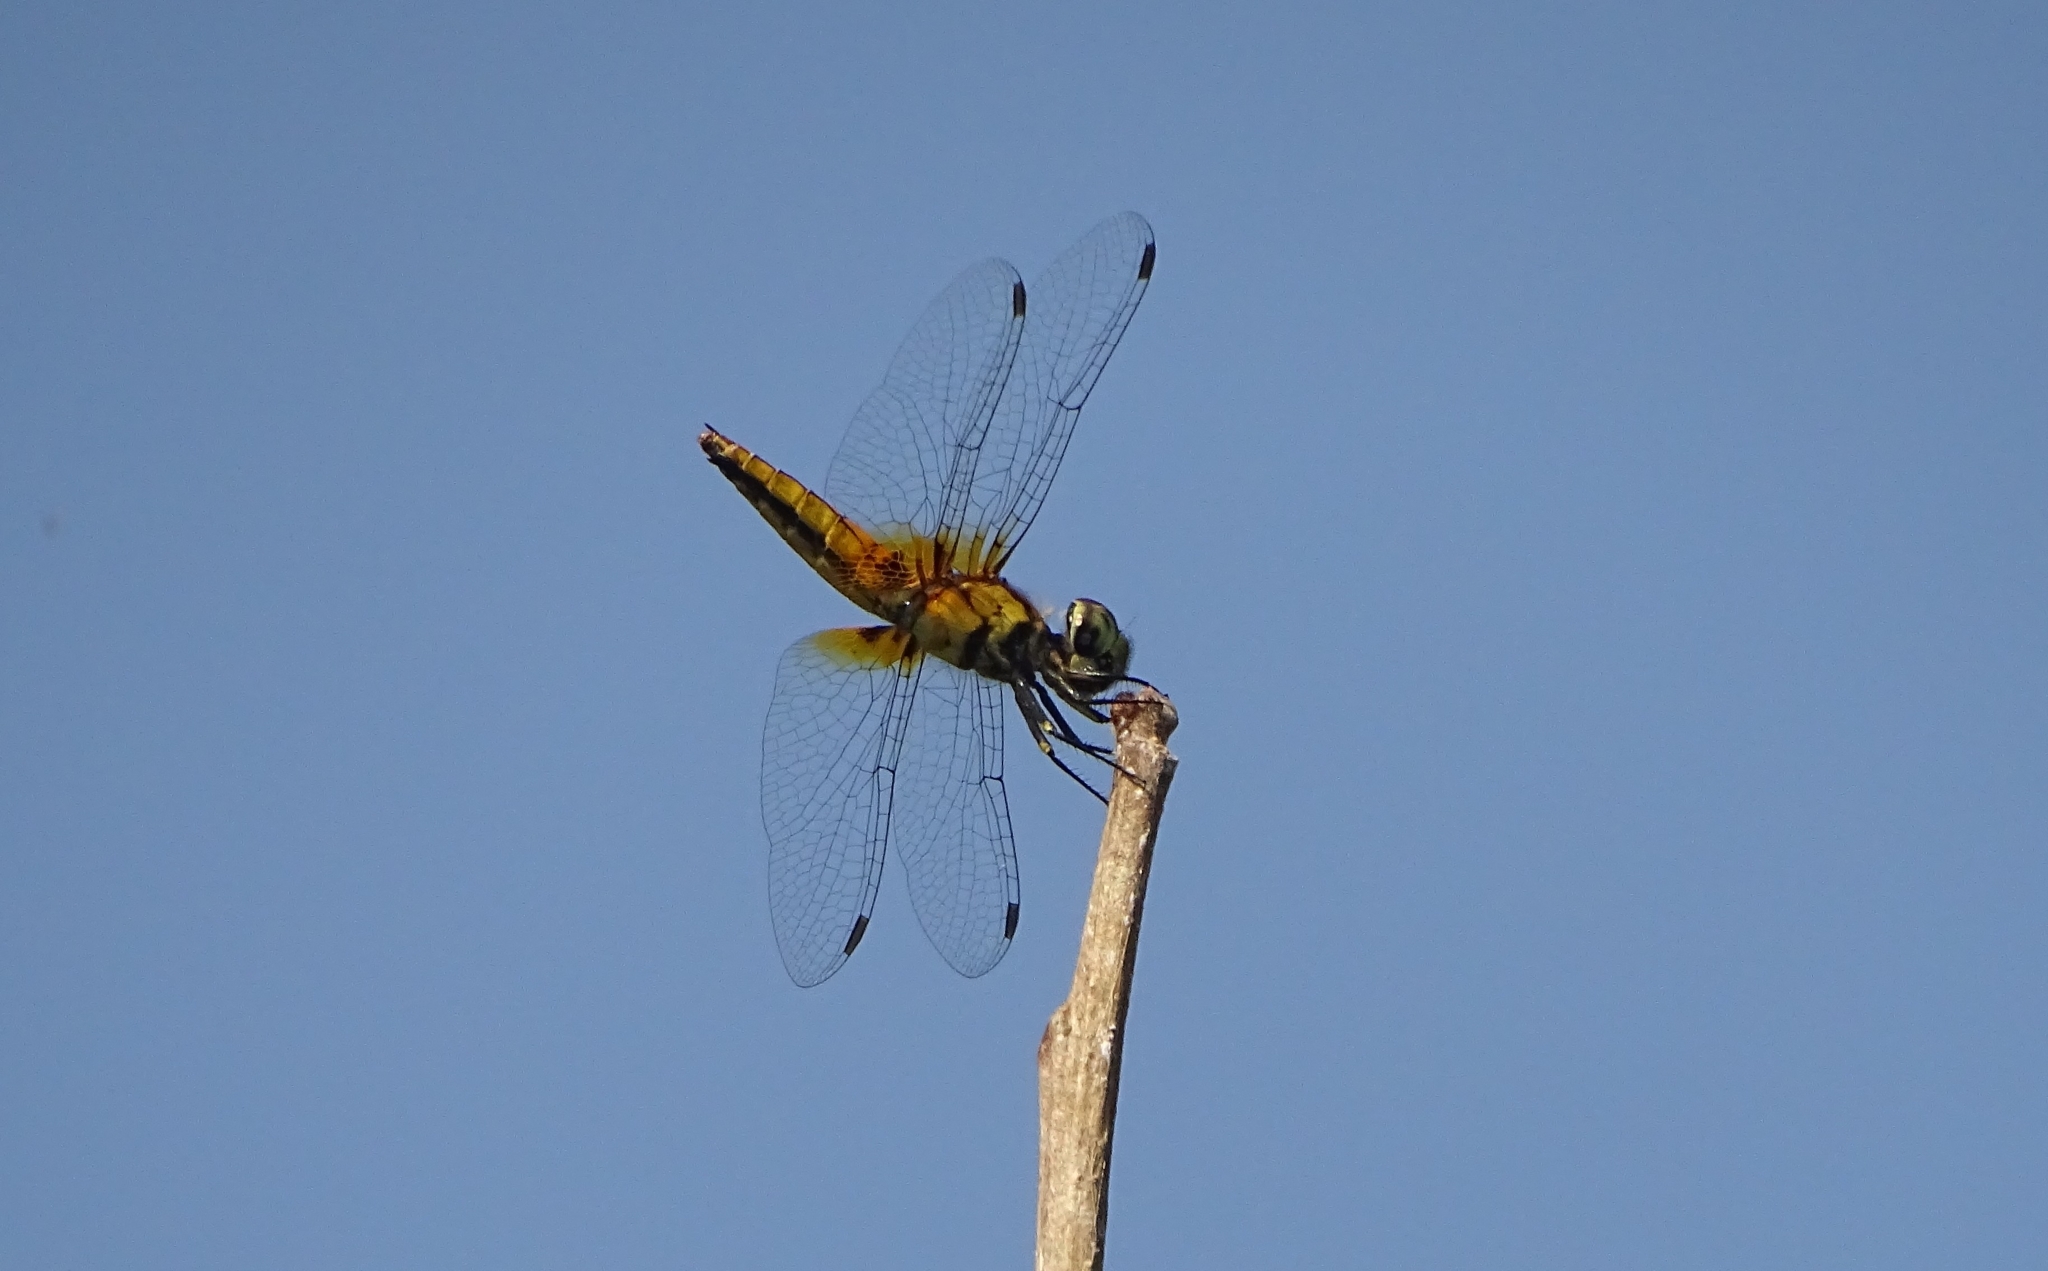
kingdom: Animalia
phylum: Arthropoda
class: Insecta
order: Odonata
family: Libellulidae
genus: Aethriamanta
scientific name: Aethriamanta brevipennis
